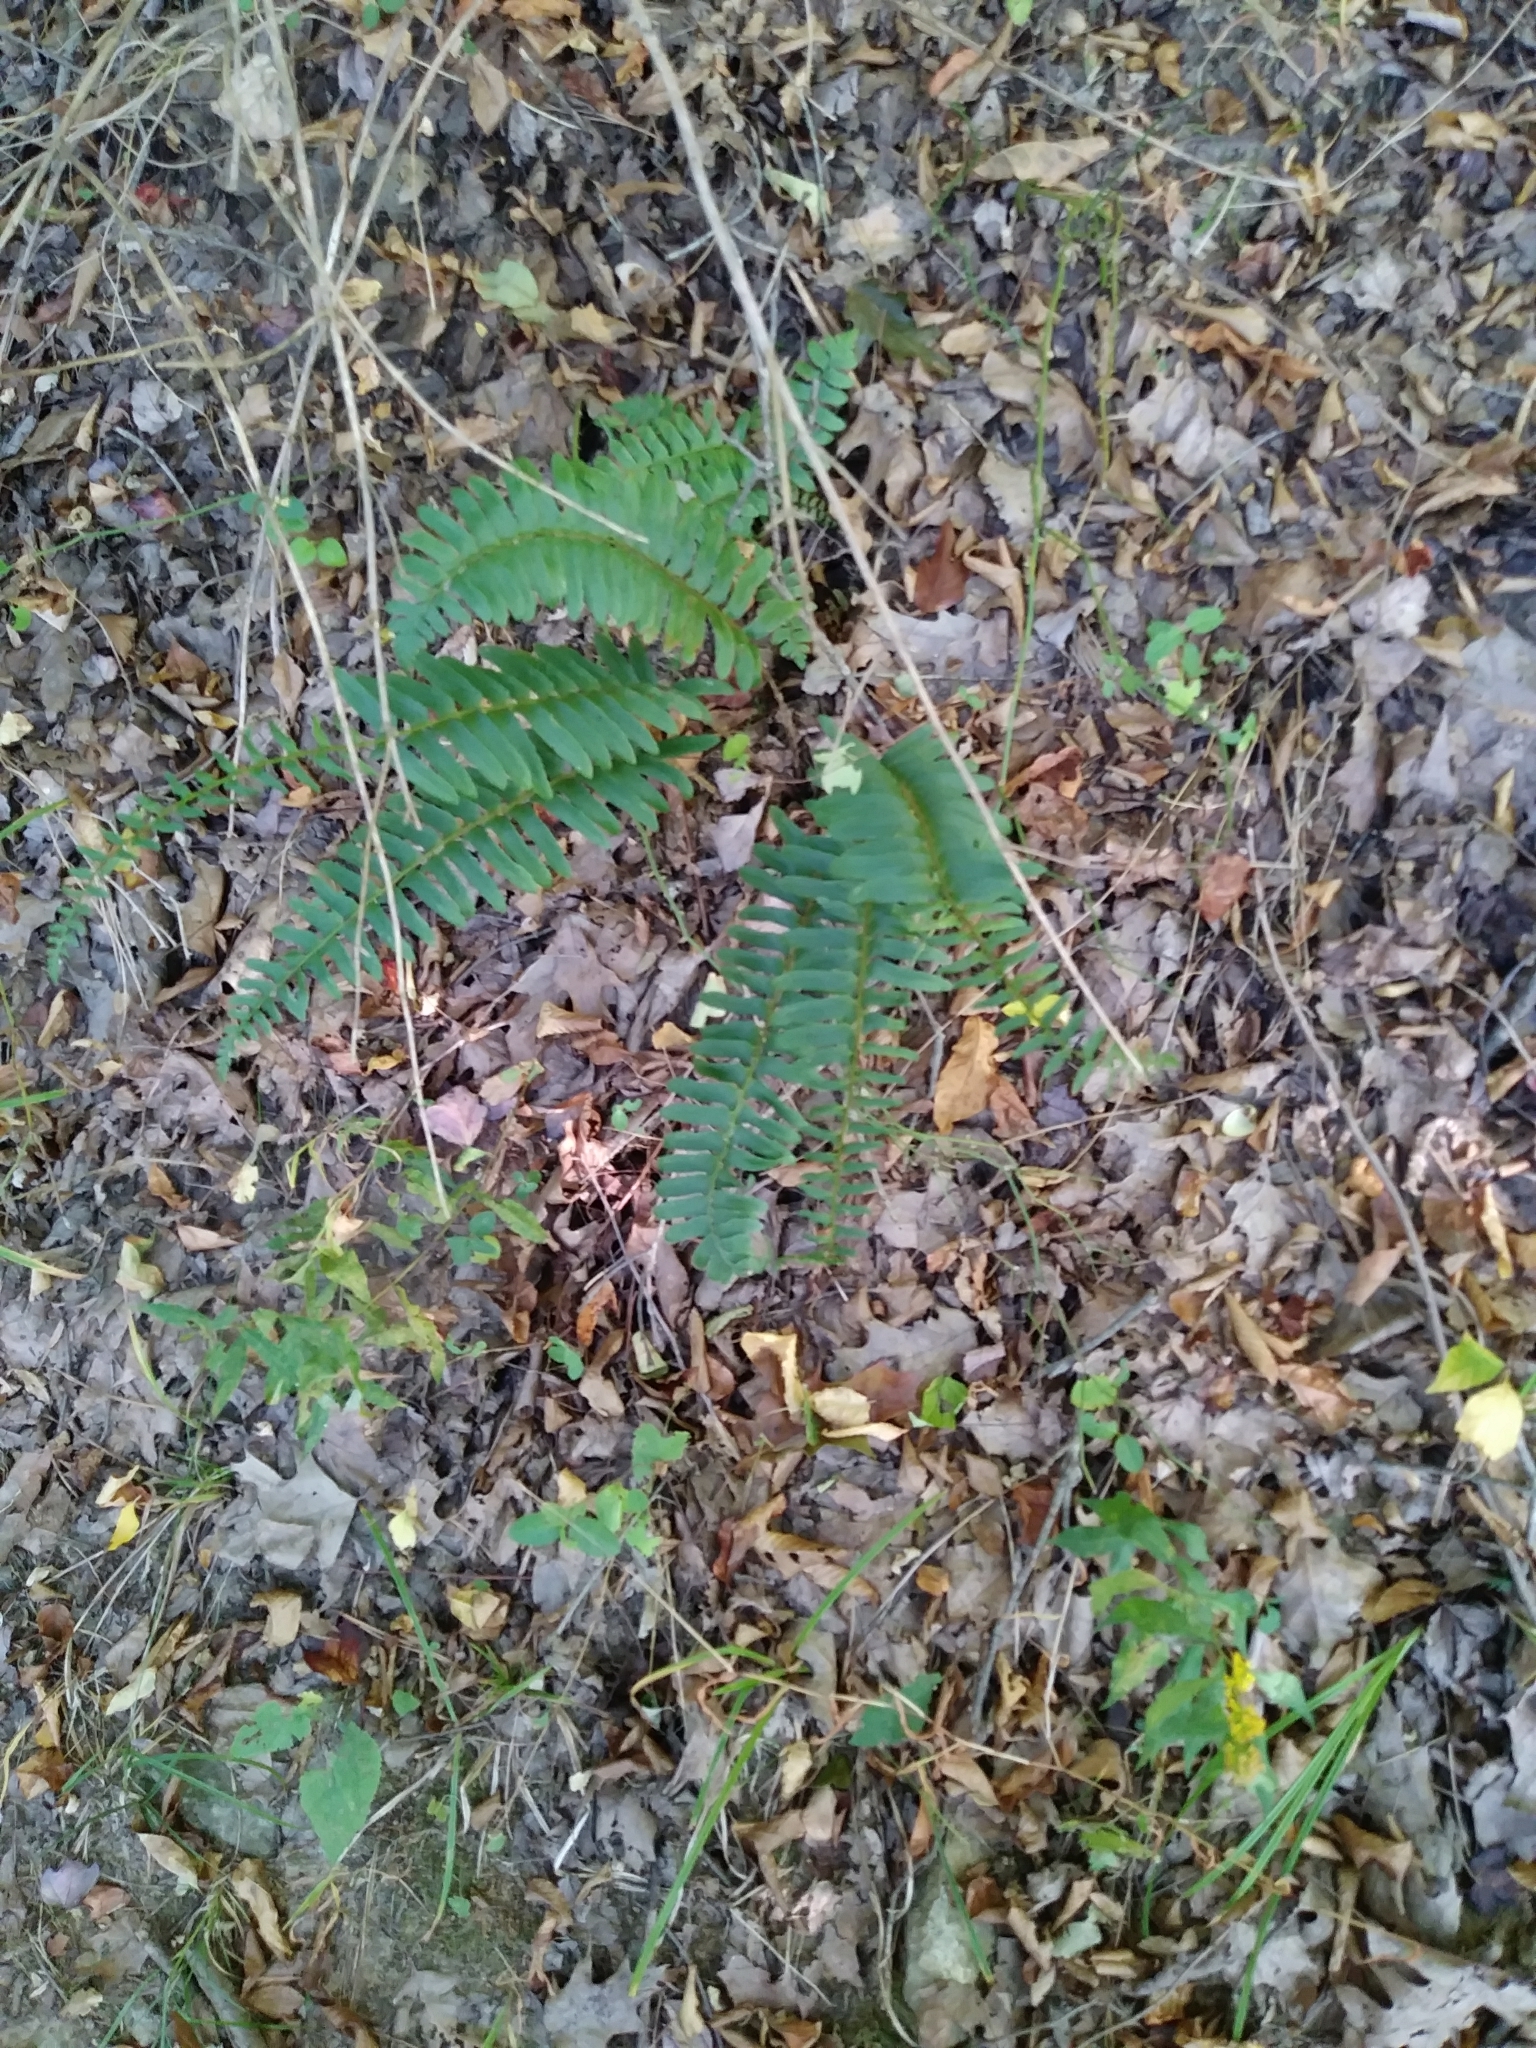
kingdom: Plantae
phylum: Tracheophyta
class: Polypodiopsida
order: Polypodiales
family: Dryopteridaceae
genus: Polystichum
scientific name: Polystichum acrostichoides
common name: Christmas fern
